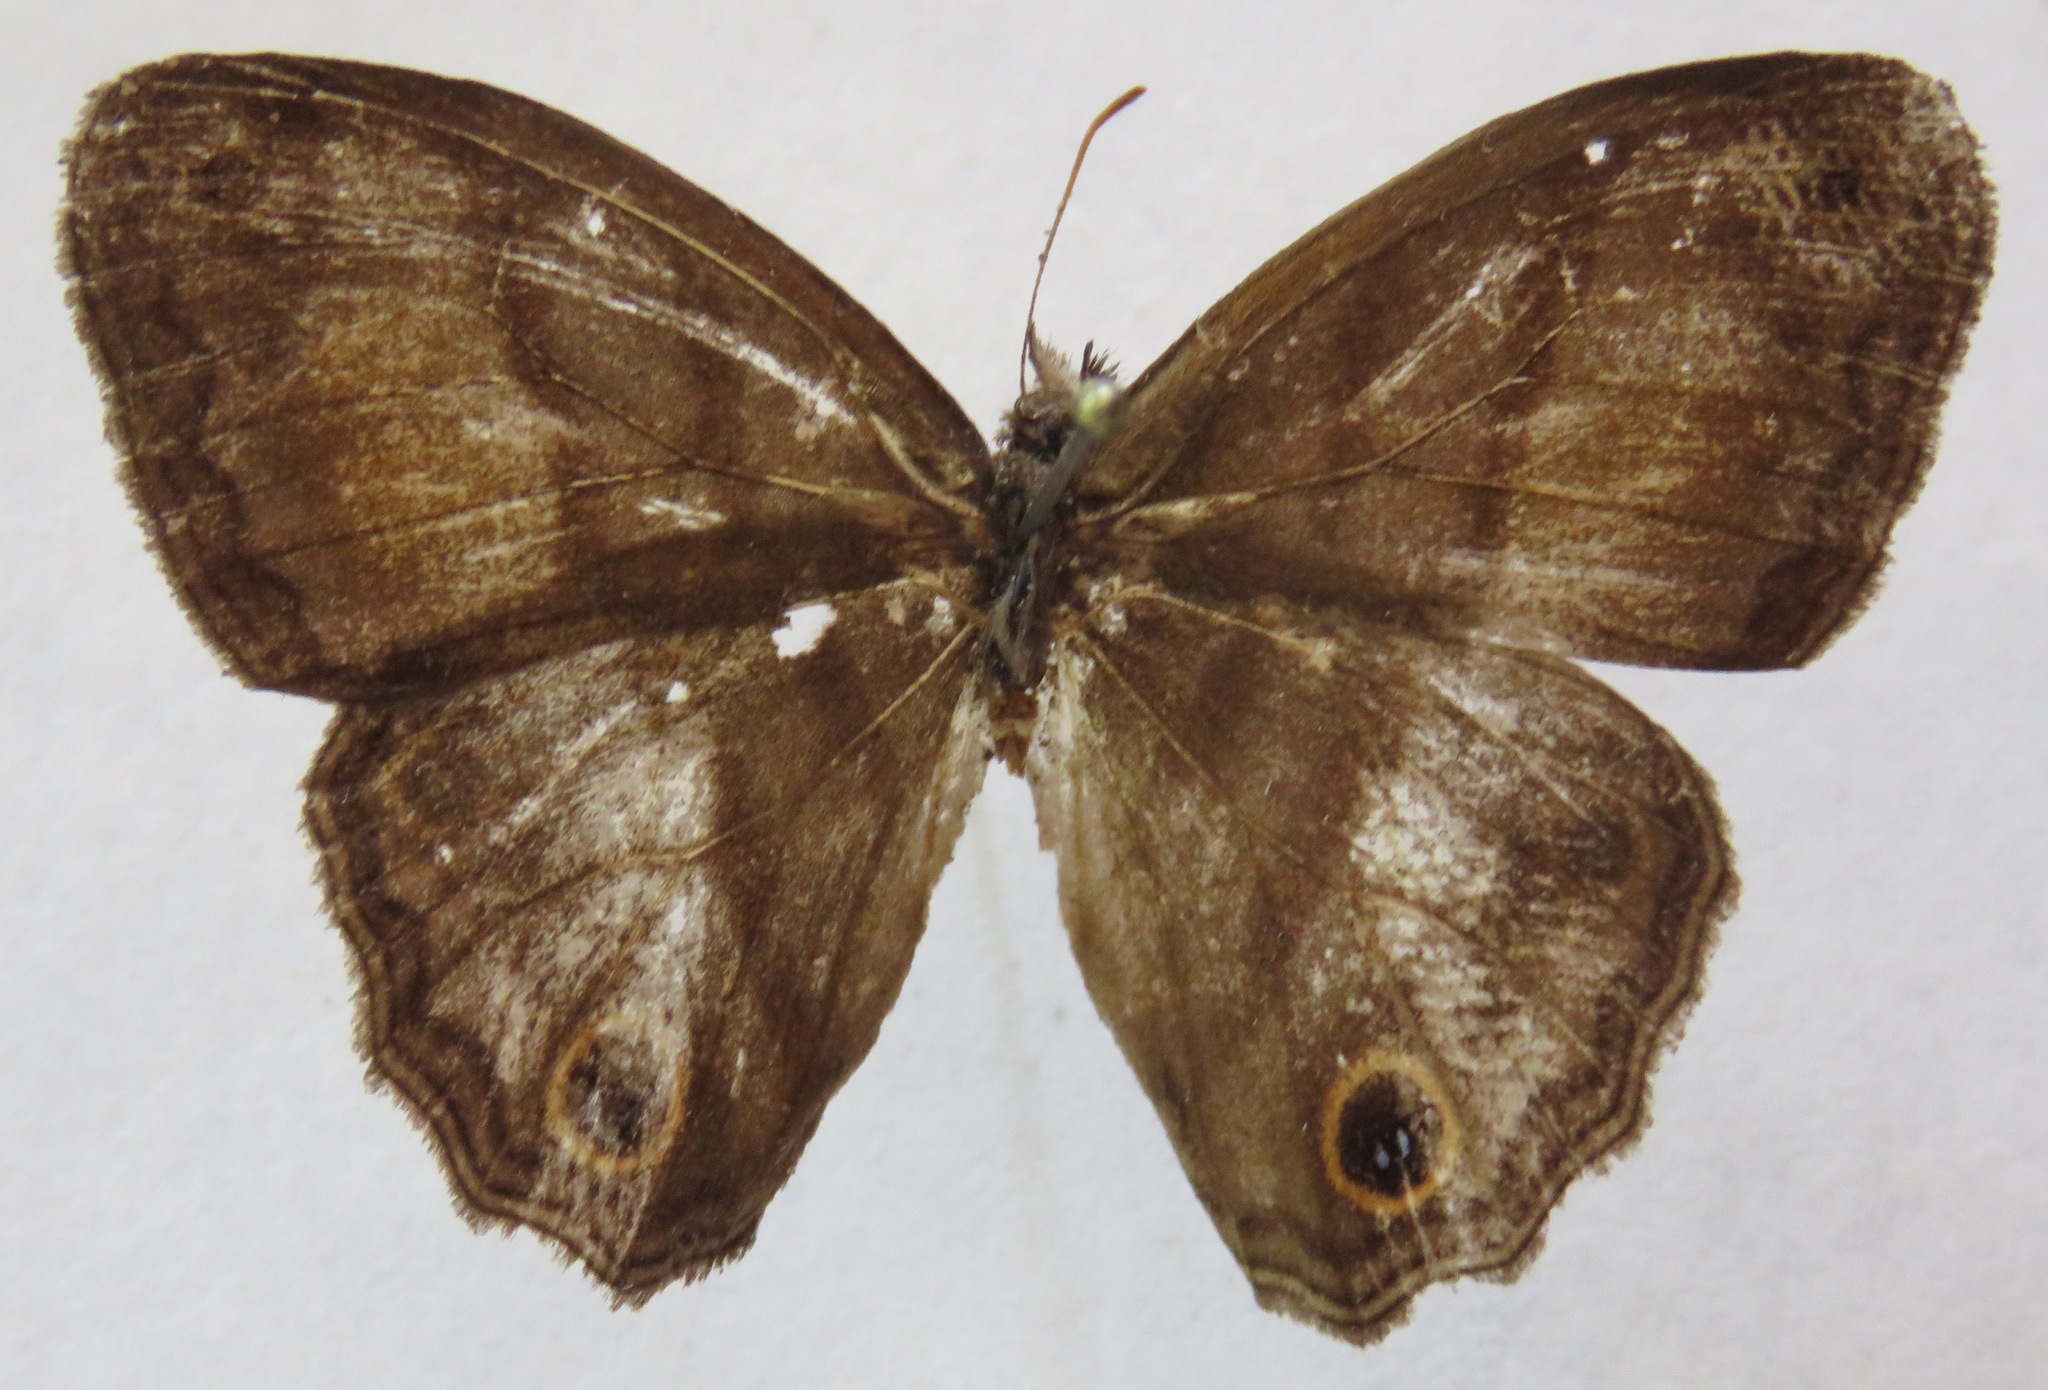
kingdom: Animalia
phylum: Arthropoda
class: Insecta
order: Lepidoptera
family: Nymphalidae
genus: Modica
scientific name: Modica
